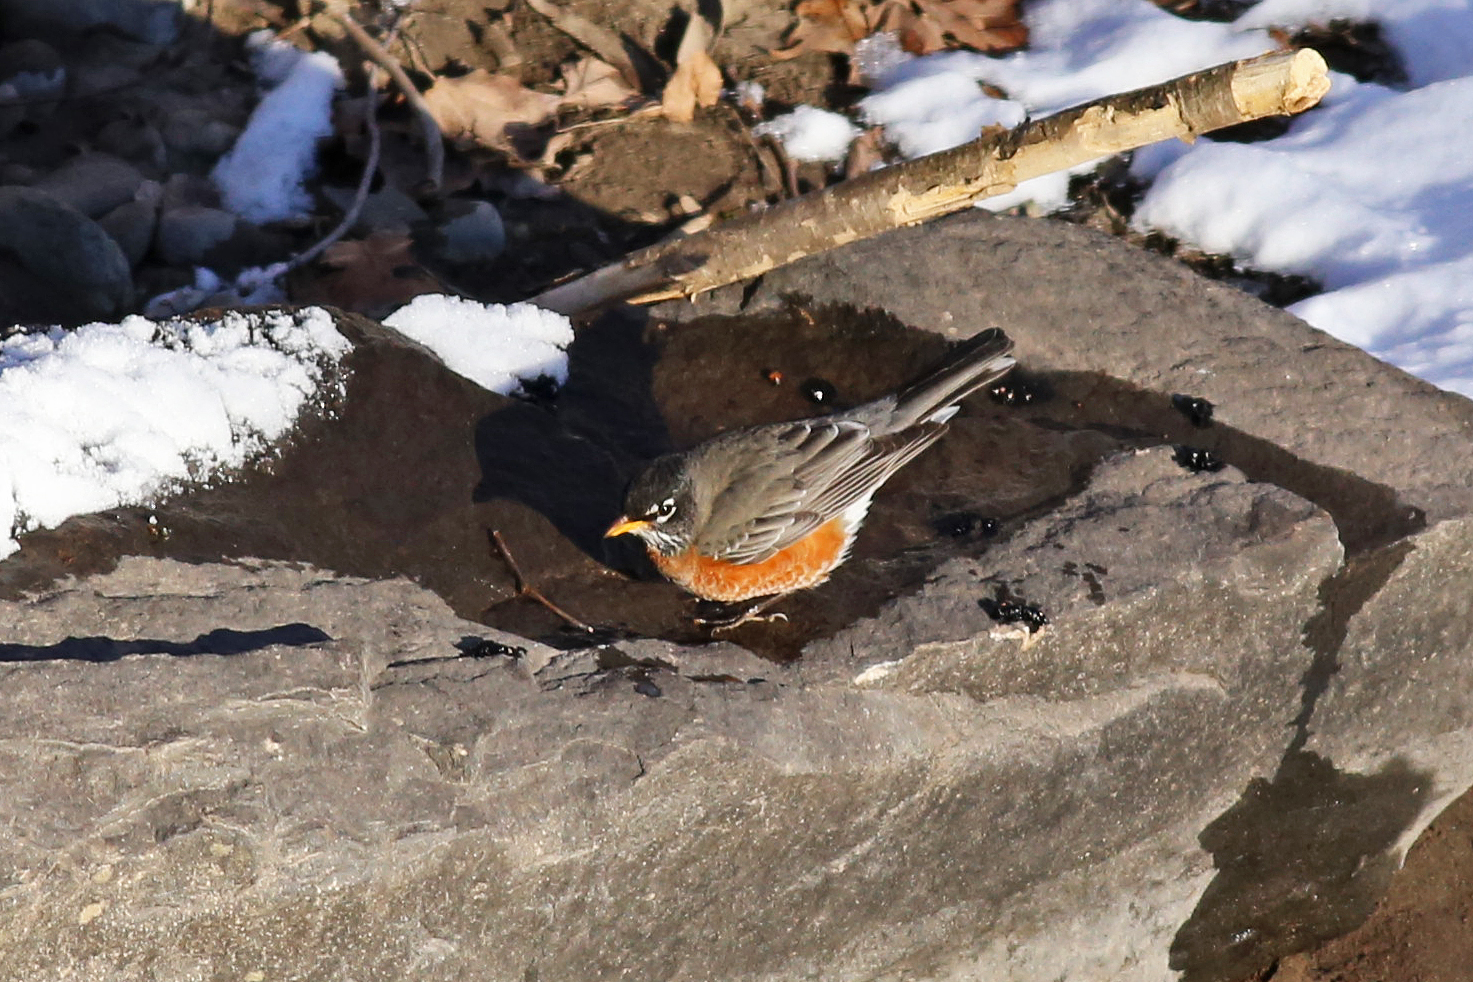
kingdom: Animalia
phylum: Chordata
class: Aves
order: Passeriformes
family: Turdidae
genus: Turdus
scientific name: Turdus migratorius
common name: American robin
